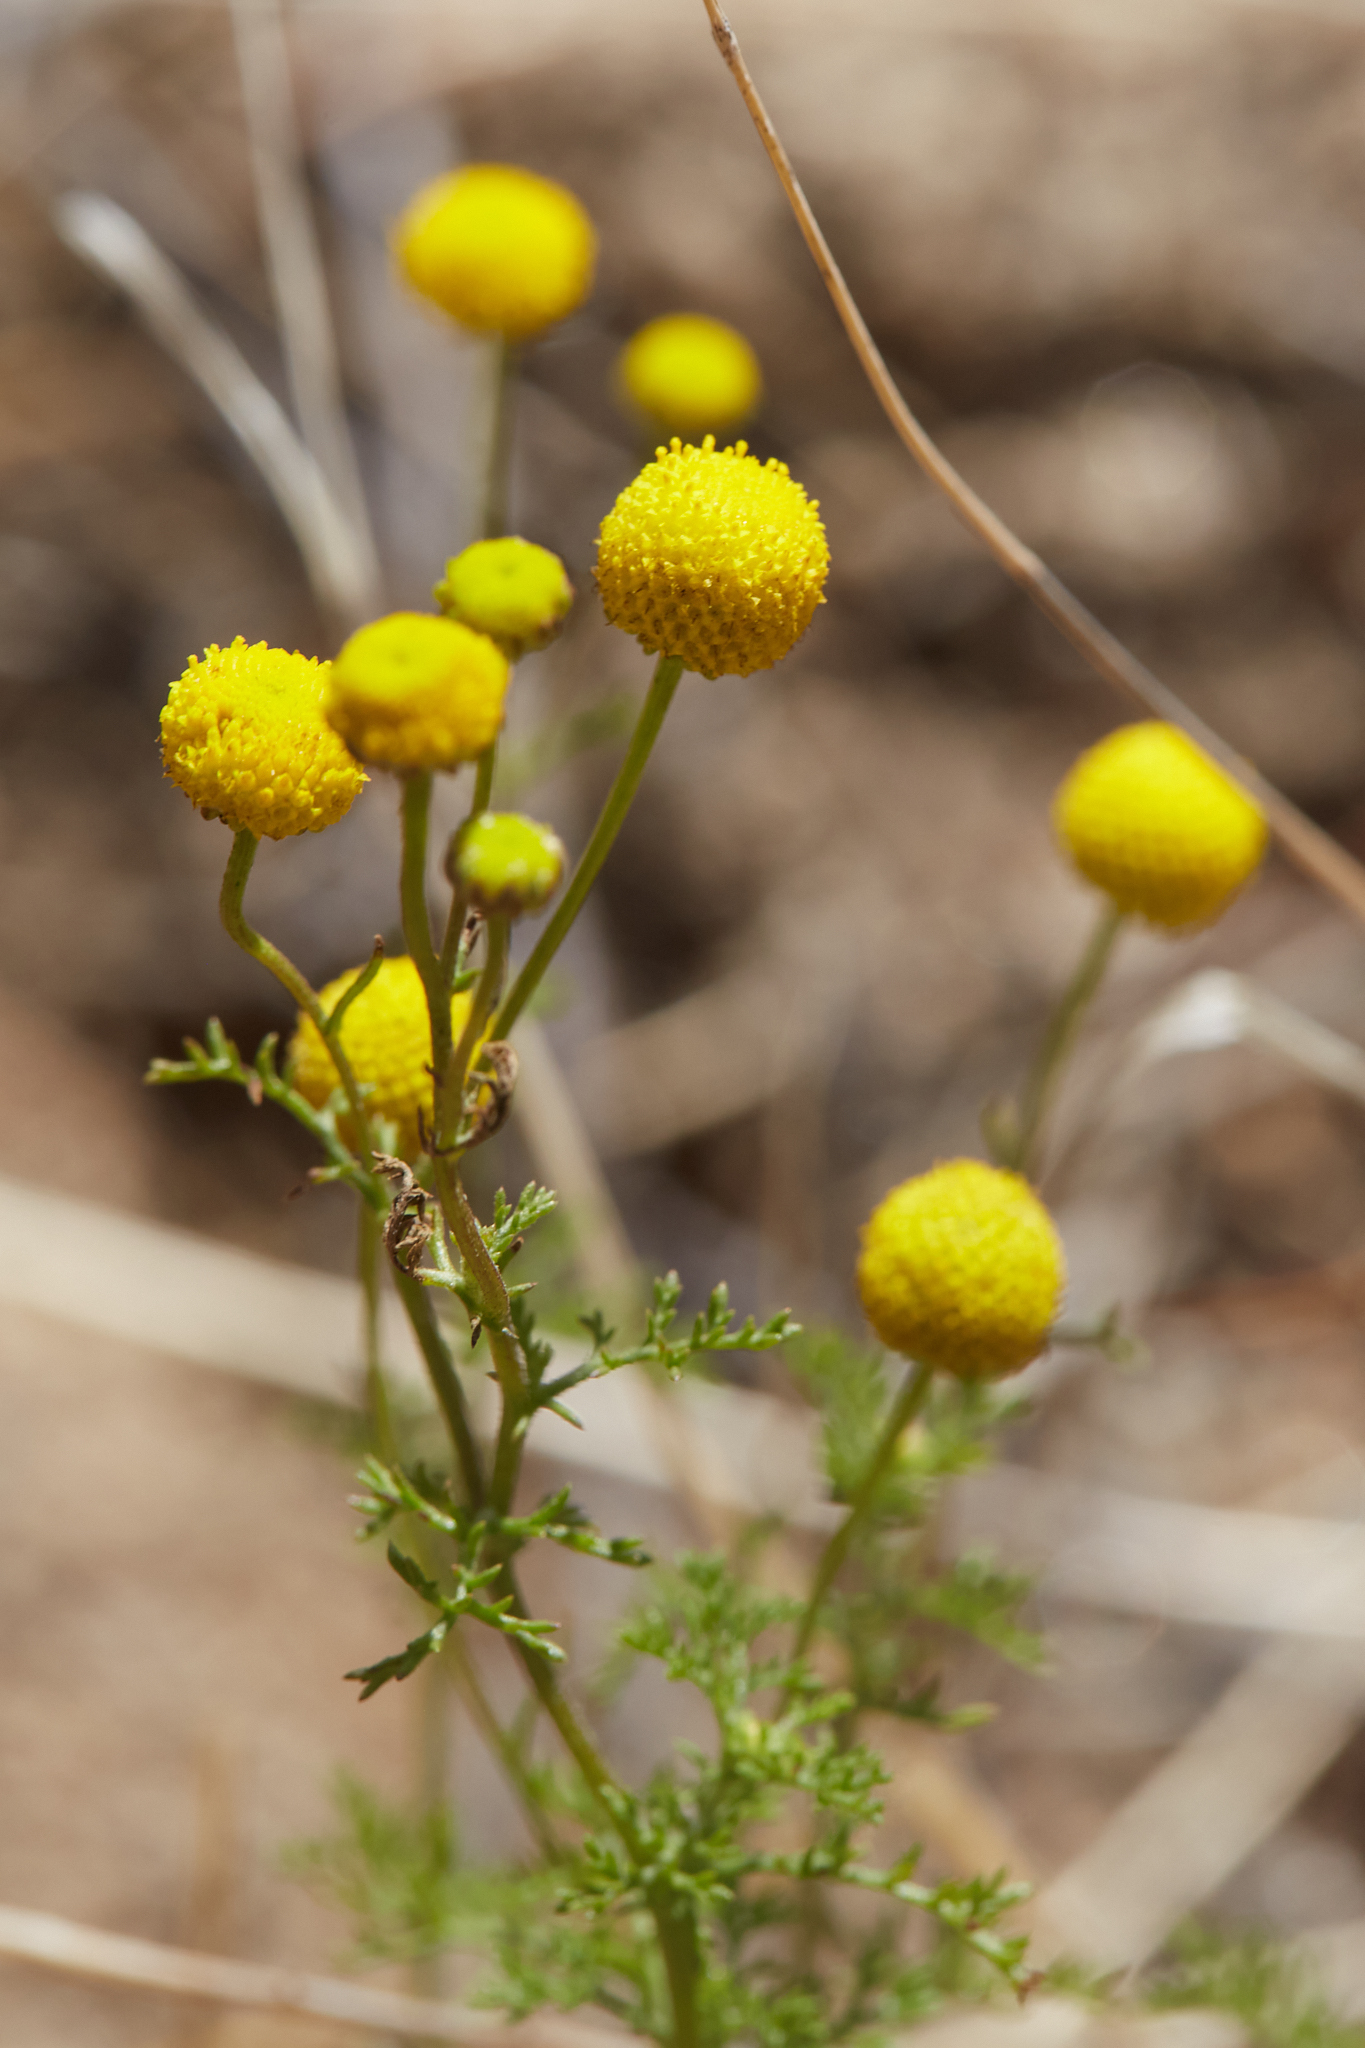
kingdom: Plantae
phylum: Tracheophyta
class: Magnoliopsida
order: Asterales
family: Asteraceae
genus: Oncosiphon
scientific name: Oncosiphon pilulifer
